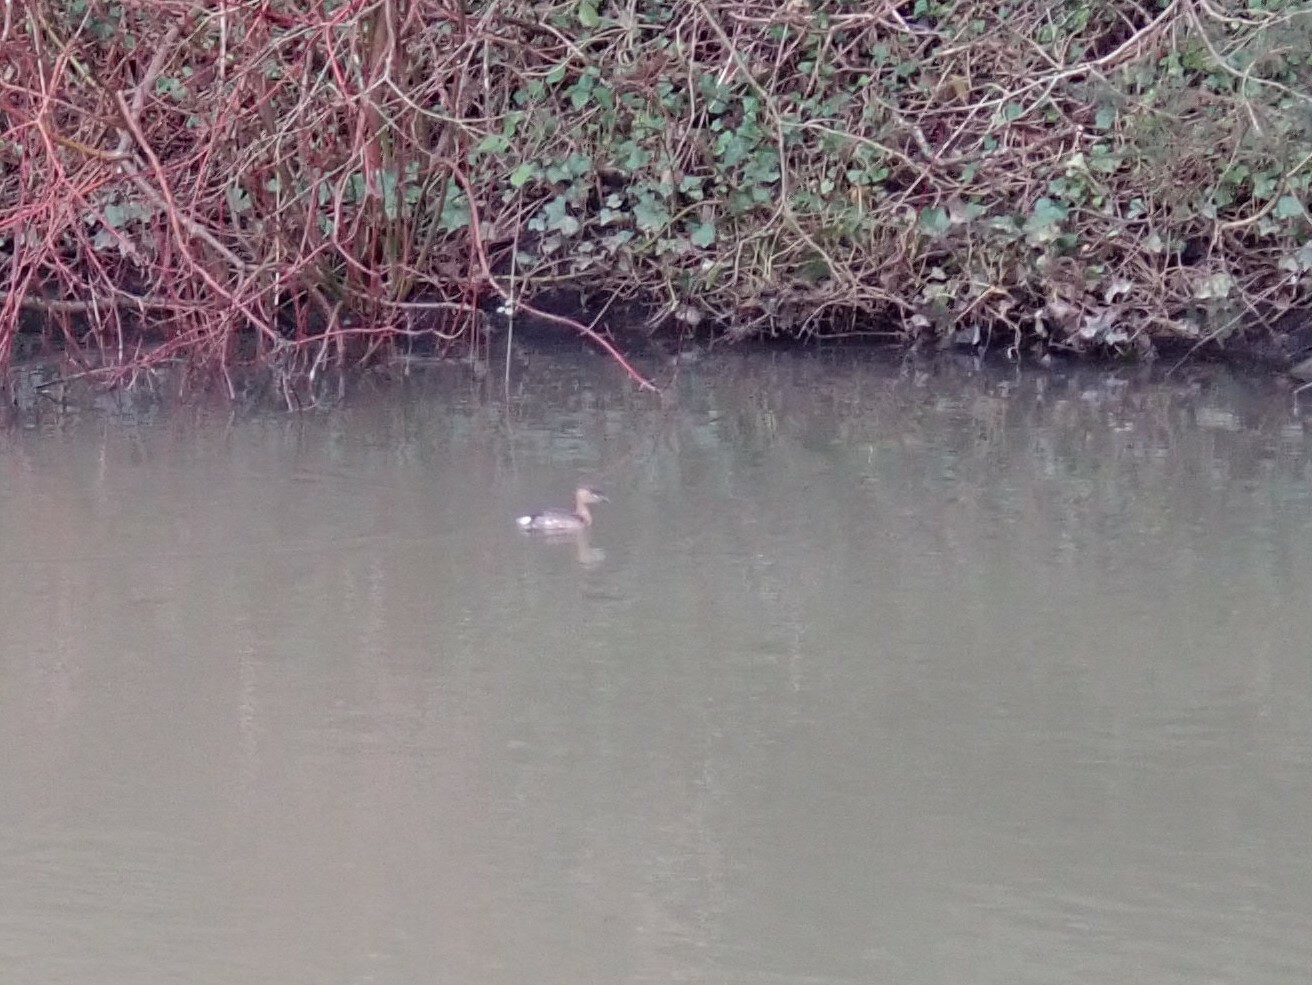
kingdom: Animalia
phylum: Chordata
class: Aves
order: Podicipediformes
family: Podicipedidae
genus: Tachybaptus
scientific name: Tachybaptus ruficollis
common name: Little grebe
